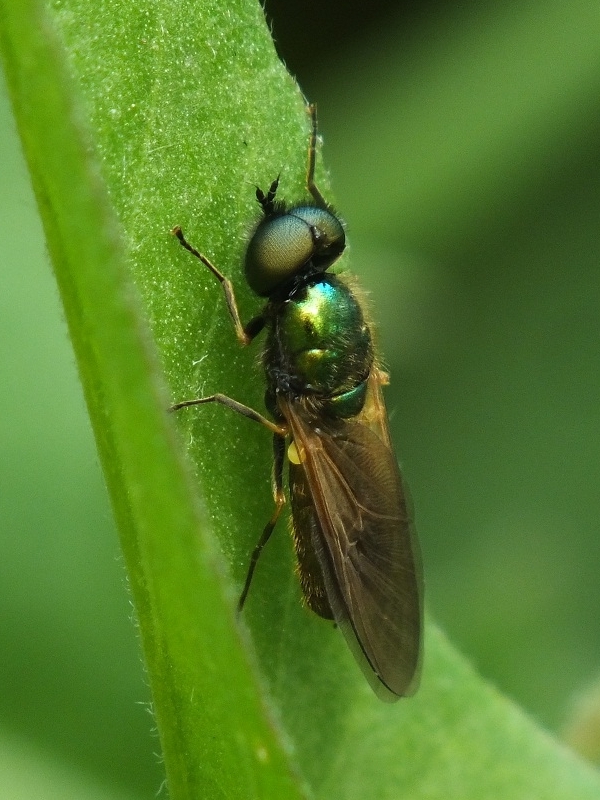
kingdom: Animalia
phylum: Arthropoda
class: Insecta
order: Diptera
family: Stratiomyidae
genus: Chloromyia
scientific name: Chloromyia formosa
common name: Soldier fly
